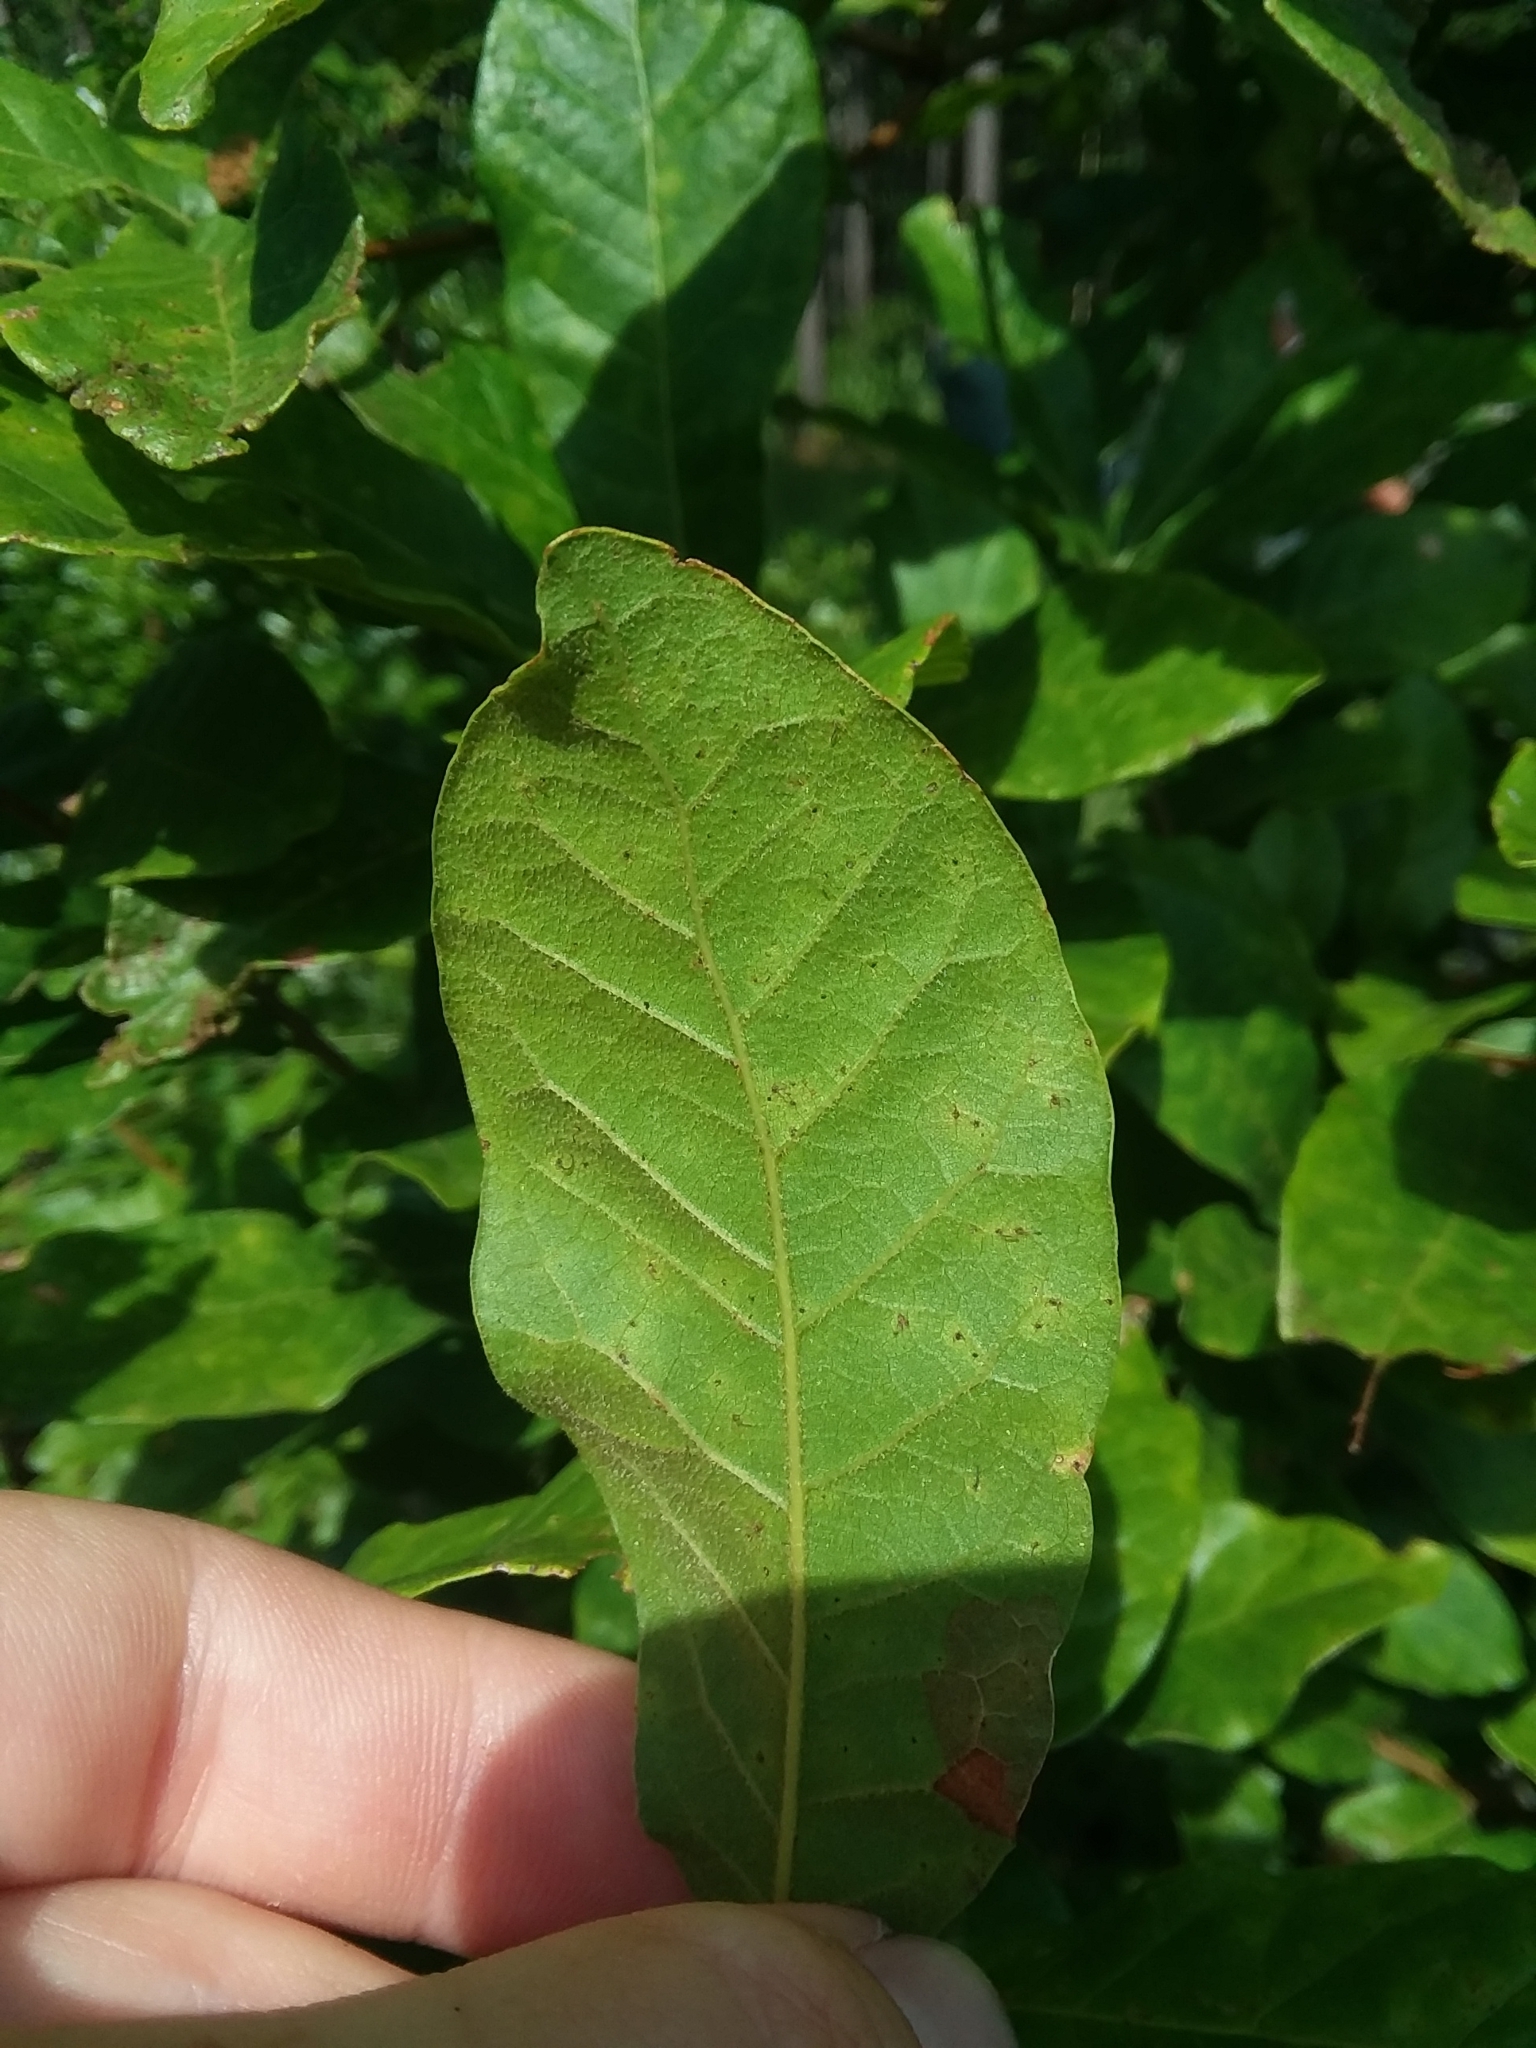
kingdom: Plantae
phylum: Tracheophyta
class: Magnoliopsida
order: Fagales
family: Fagaceae
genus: Quercus
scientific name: Quercus oglethorpensis
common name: Oglethorpe oak
